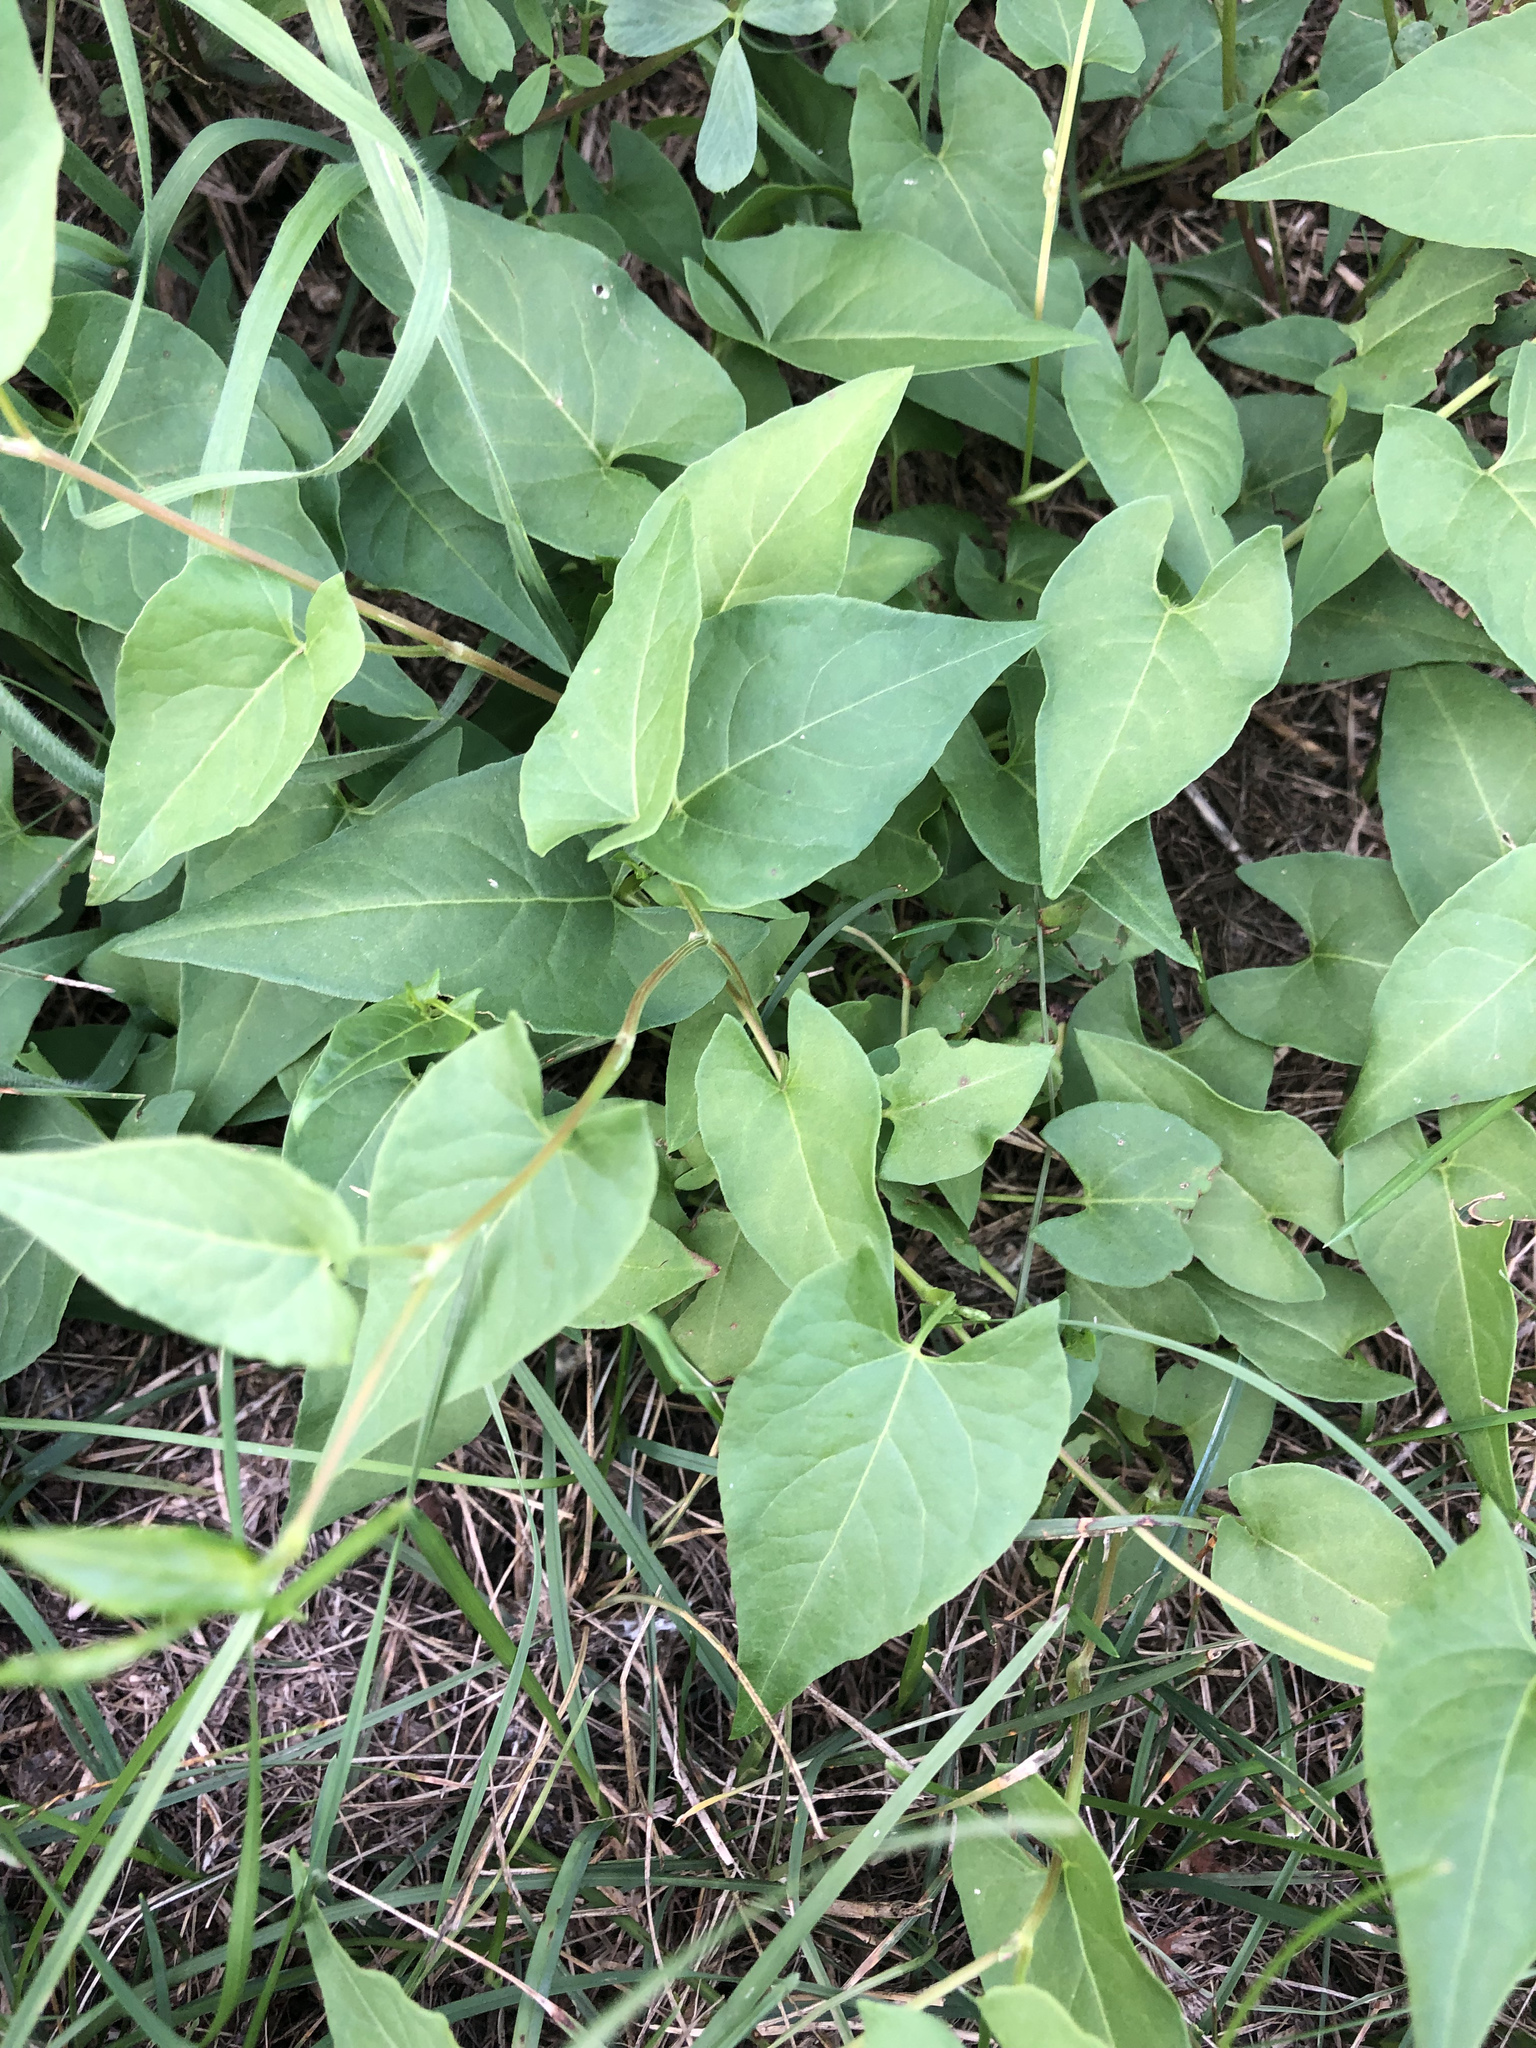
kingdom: Plantae
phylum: Tracheophyta
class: Magnoliopsida
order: Caryophyllales
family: Polygonaceae
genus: Fallopia
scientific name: Fallopia convolvulus
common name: Black bindweed
